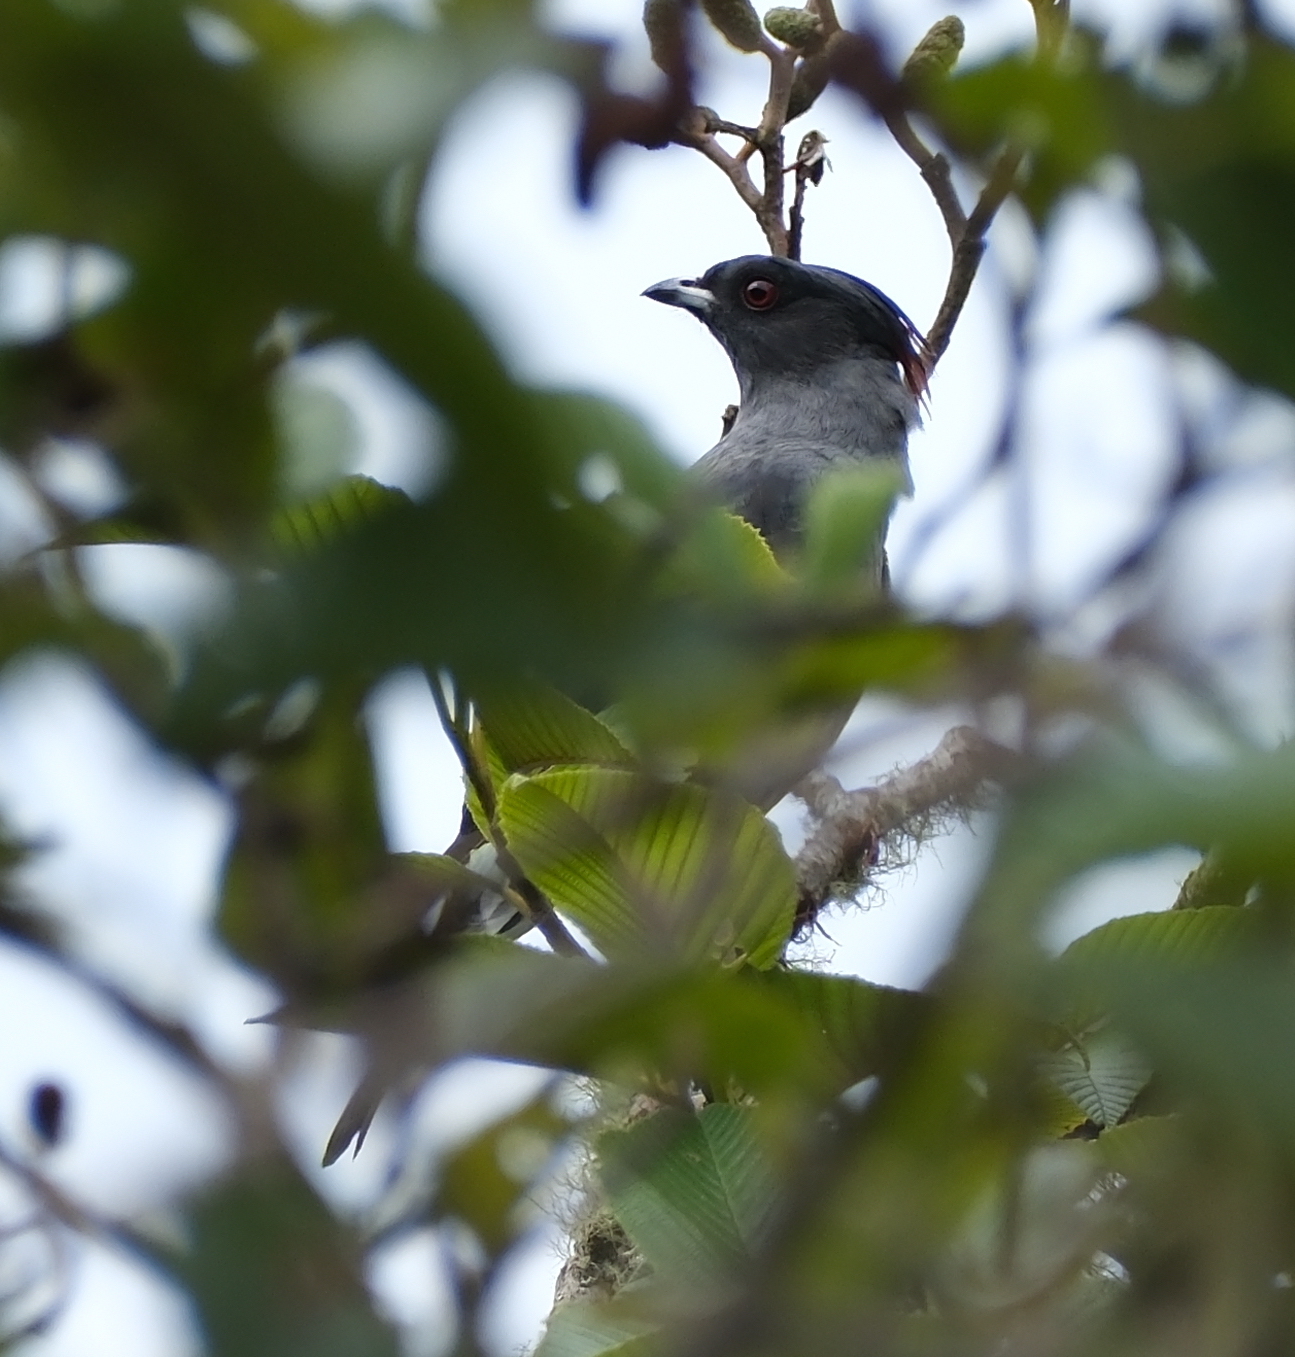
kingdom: Animalia
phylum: Chordata
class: Aves
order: Passeriformes
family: Cotingidae
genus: Ampelion
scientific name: Ampelion rubrocristatus
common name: Red-crested cotinga
